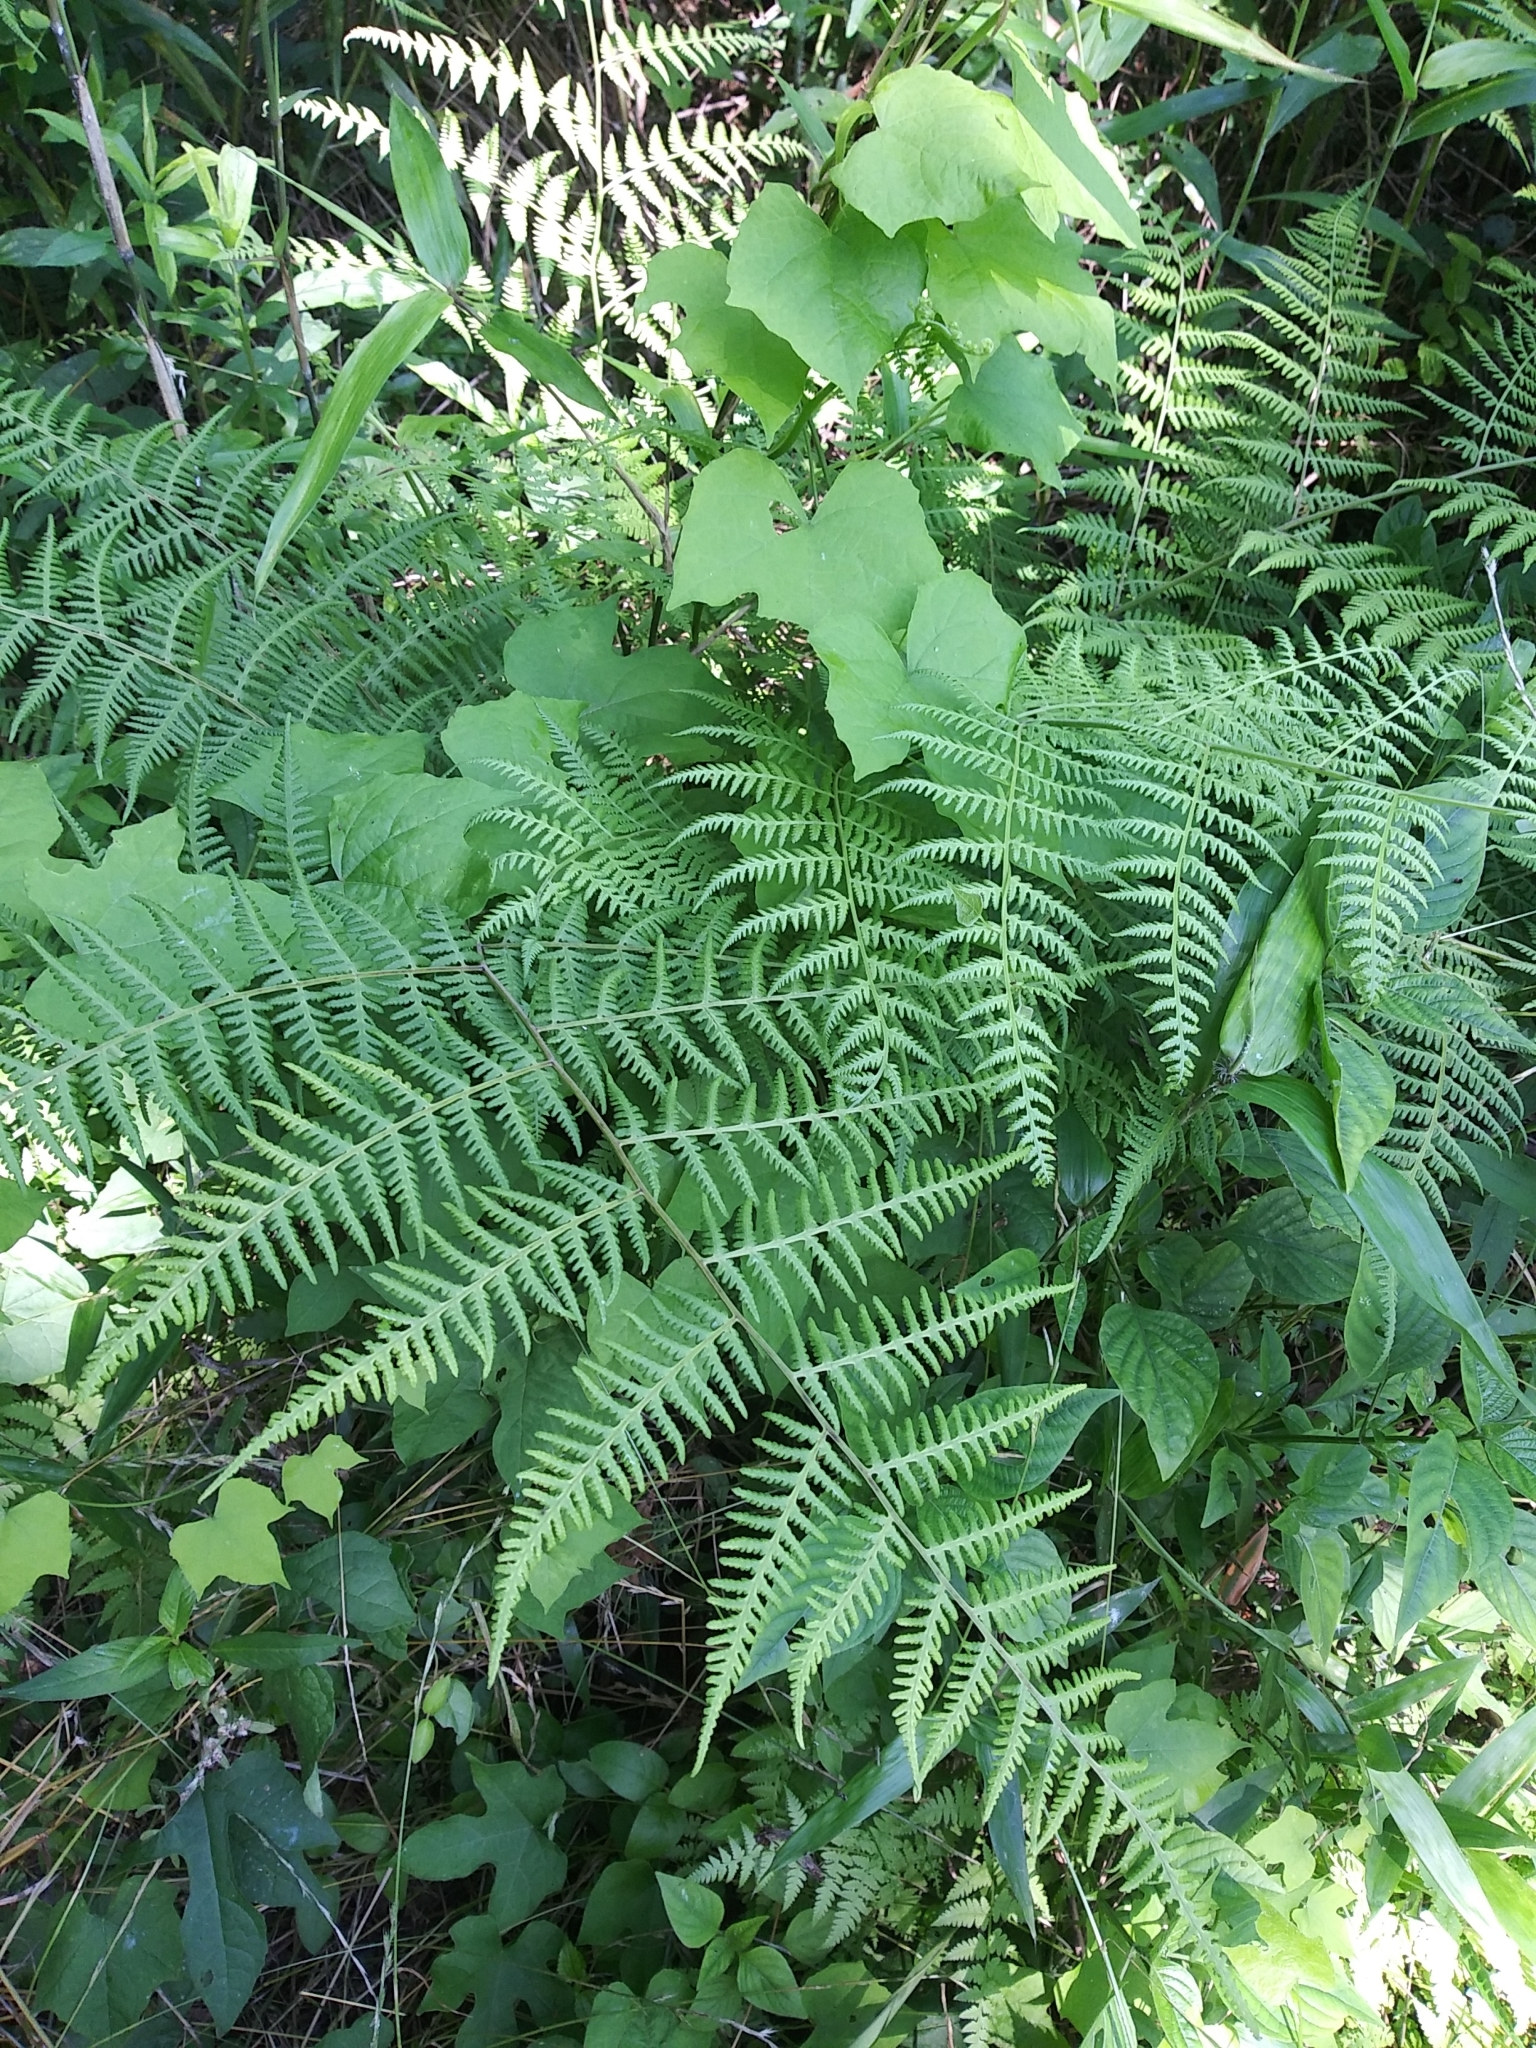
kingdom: Plantae
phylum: Tracheophyta
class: Polypodiopsida
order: Polypodiales
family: Thelypteridaceae
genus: Macrothelypteris
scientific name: Macrothelypteris torresiana
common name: Swordfern
